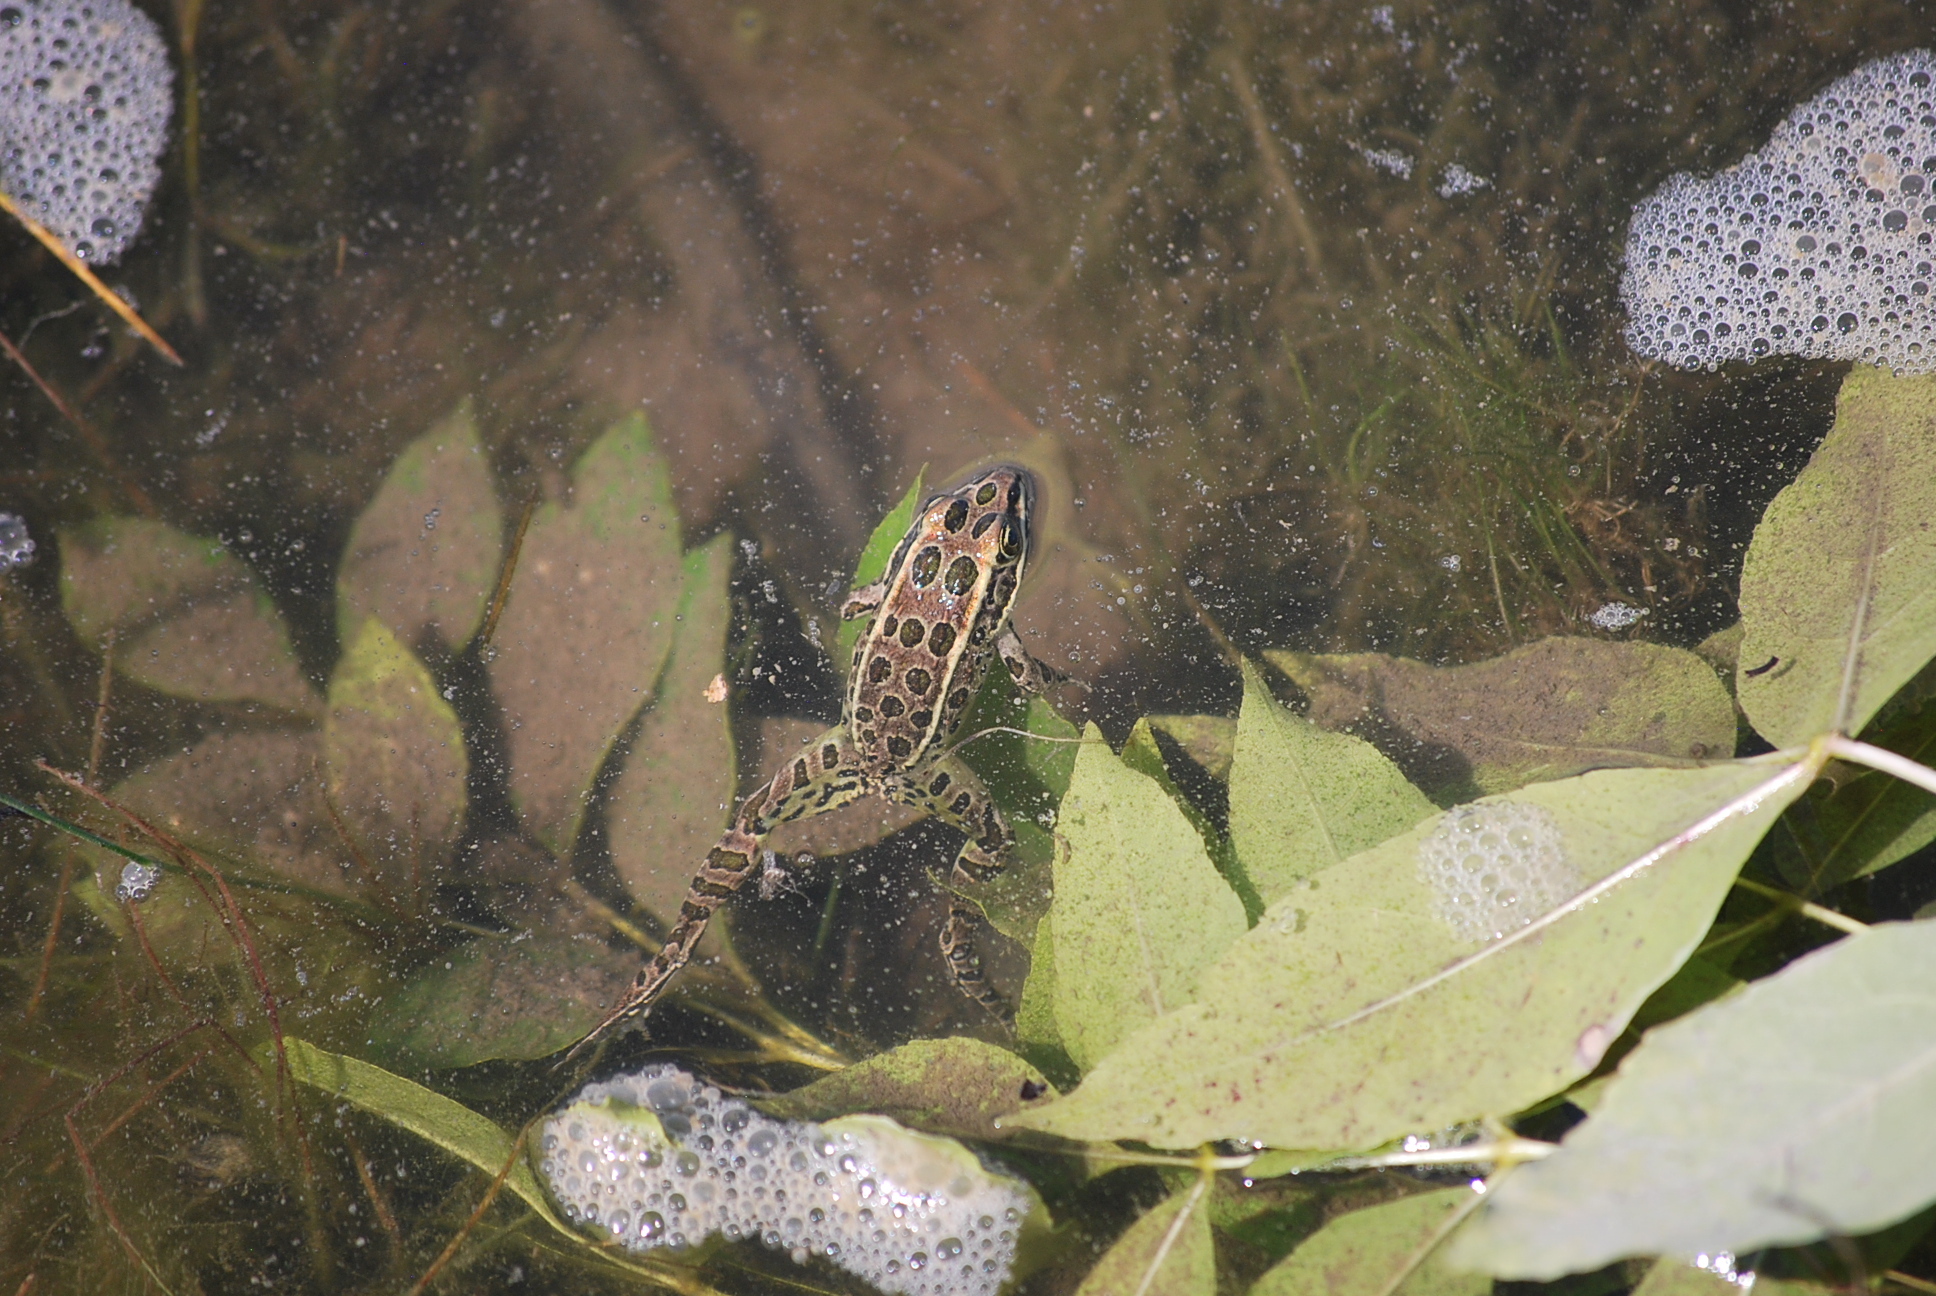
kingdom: Animalia
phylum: Chordata
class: Amphibia
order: Anura
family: Ranidae
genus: Lithobates
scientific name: Lithobates pipiens
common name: Northern leopard frog
